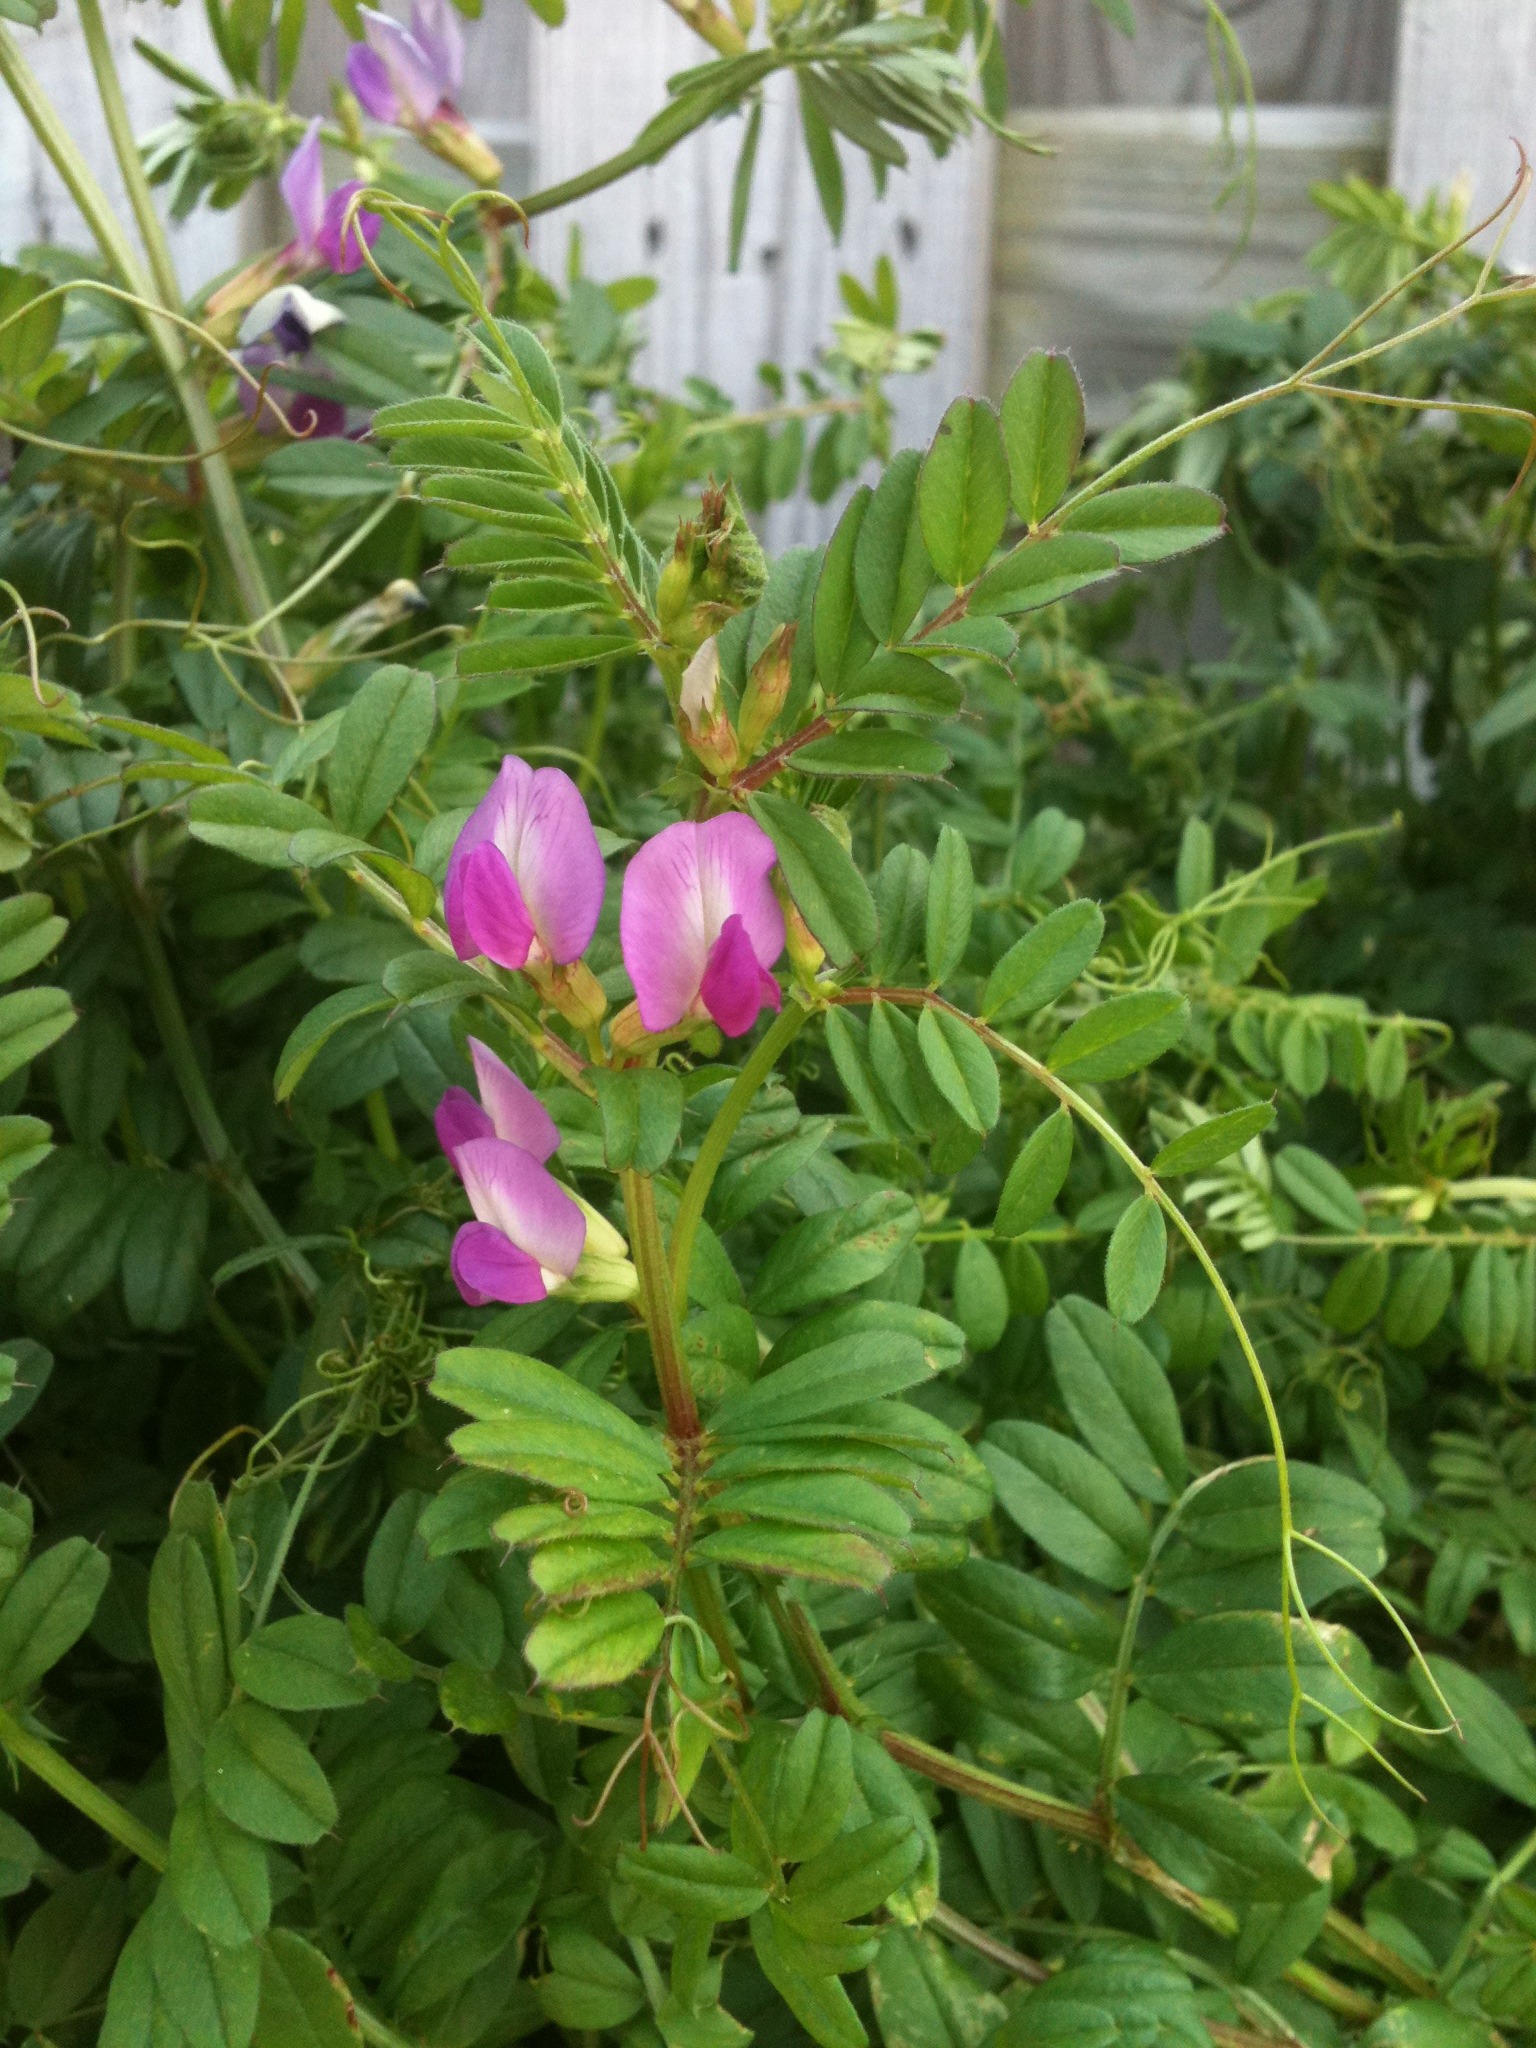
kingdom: Plantae
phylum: Tracheophyta
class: Magnoliopsida
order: Fabales
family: Fabaceae
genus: Vicia
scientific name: Vicia sativa
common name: Garden vetch
